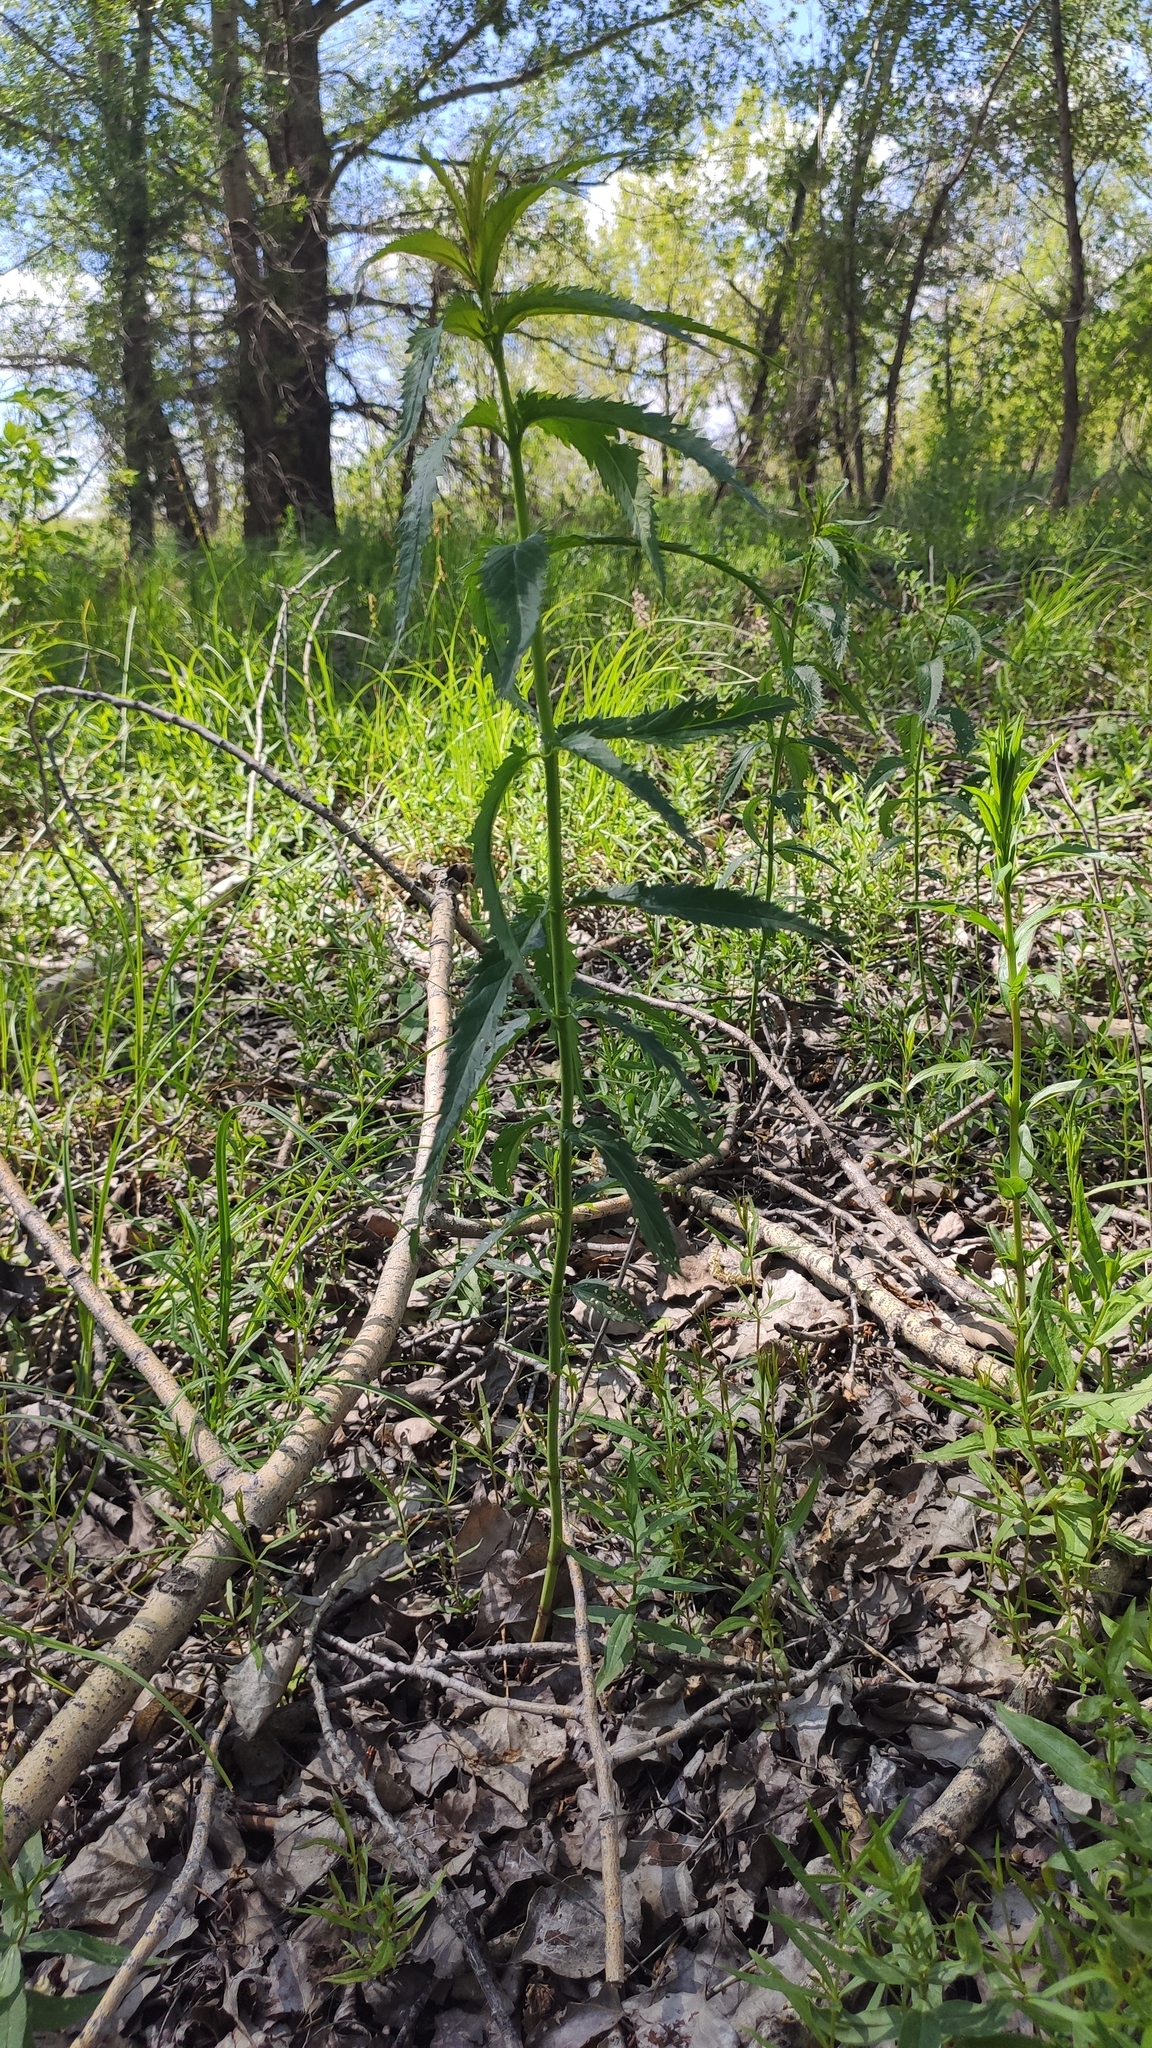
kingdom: Plantae
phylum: Tracheophyta
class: Magnoliopsida
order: Lamiales
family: Plantaginaceae
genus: Veronica
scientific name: Veronica longifolia
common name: Garden speedwell
